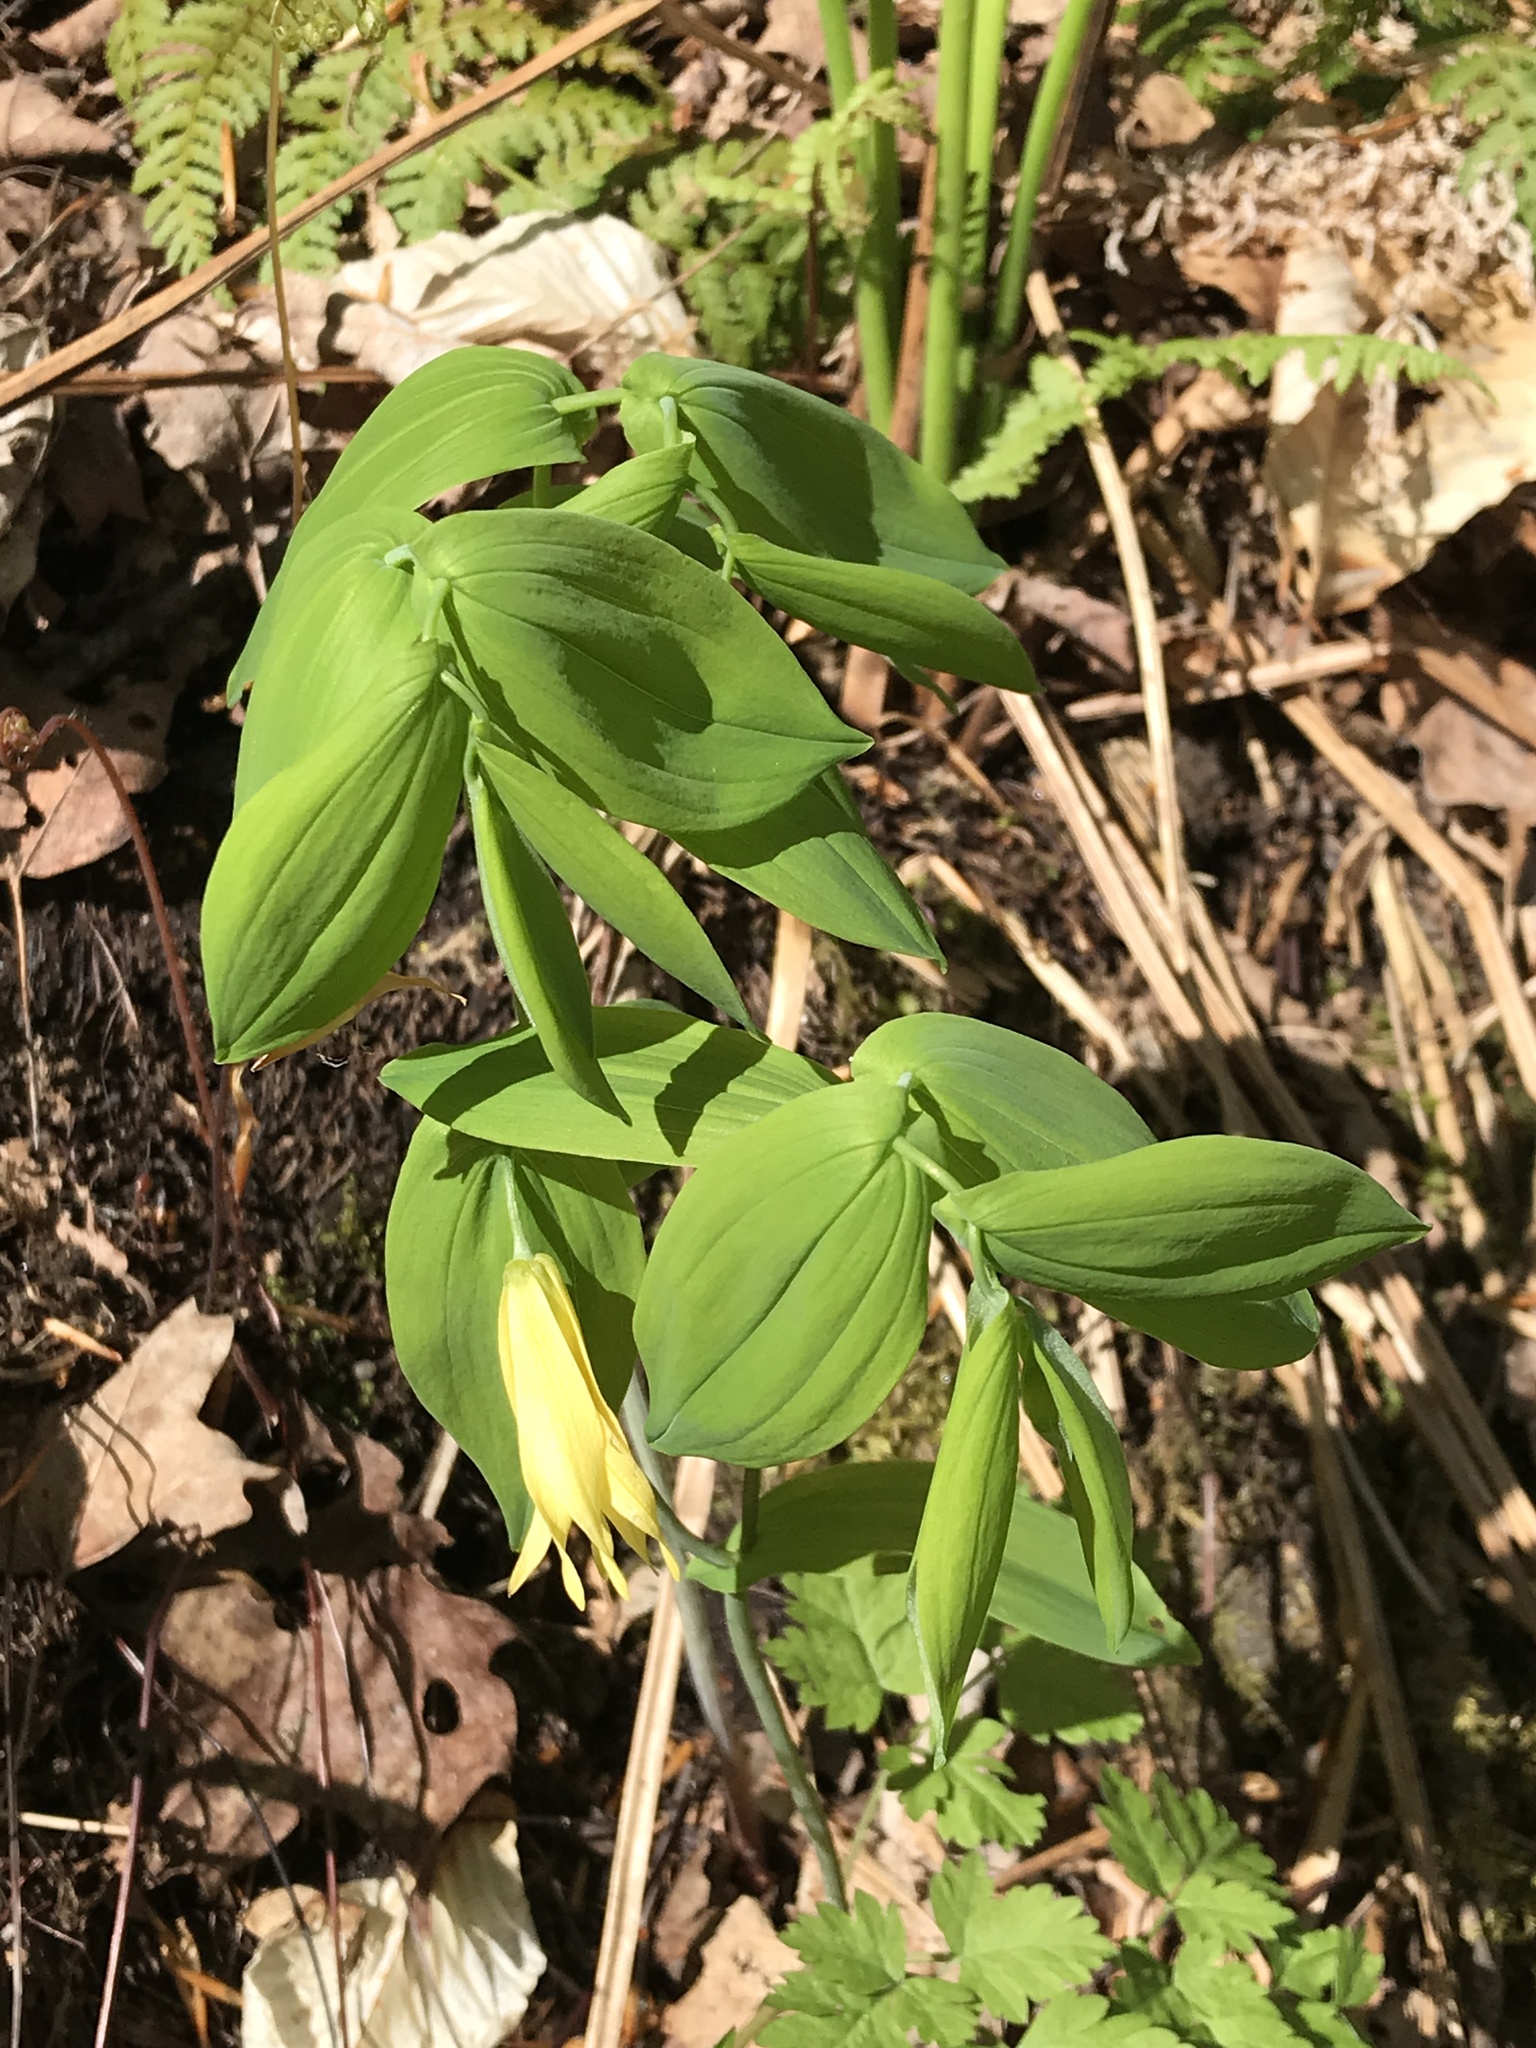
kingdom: Plantae
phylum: Tracheophyta
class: Liliopsida
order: Liliales
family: Colchicaceae
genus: Uvularia
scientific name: Uvularia grandiflora
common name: Bellwort
